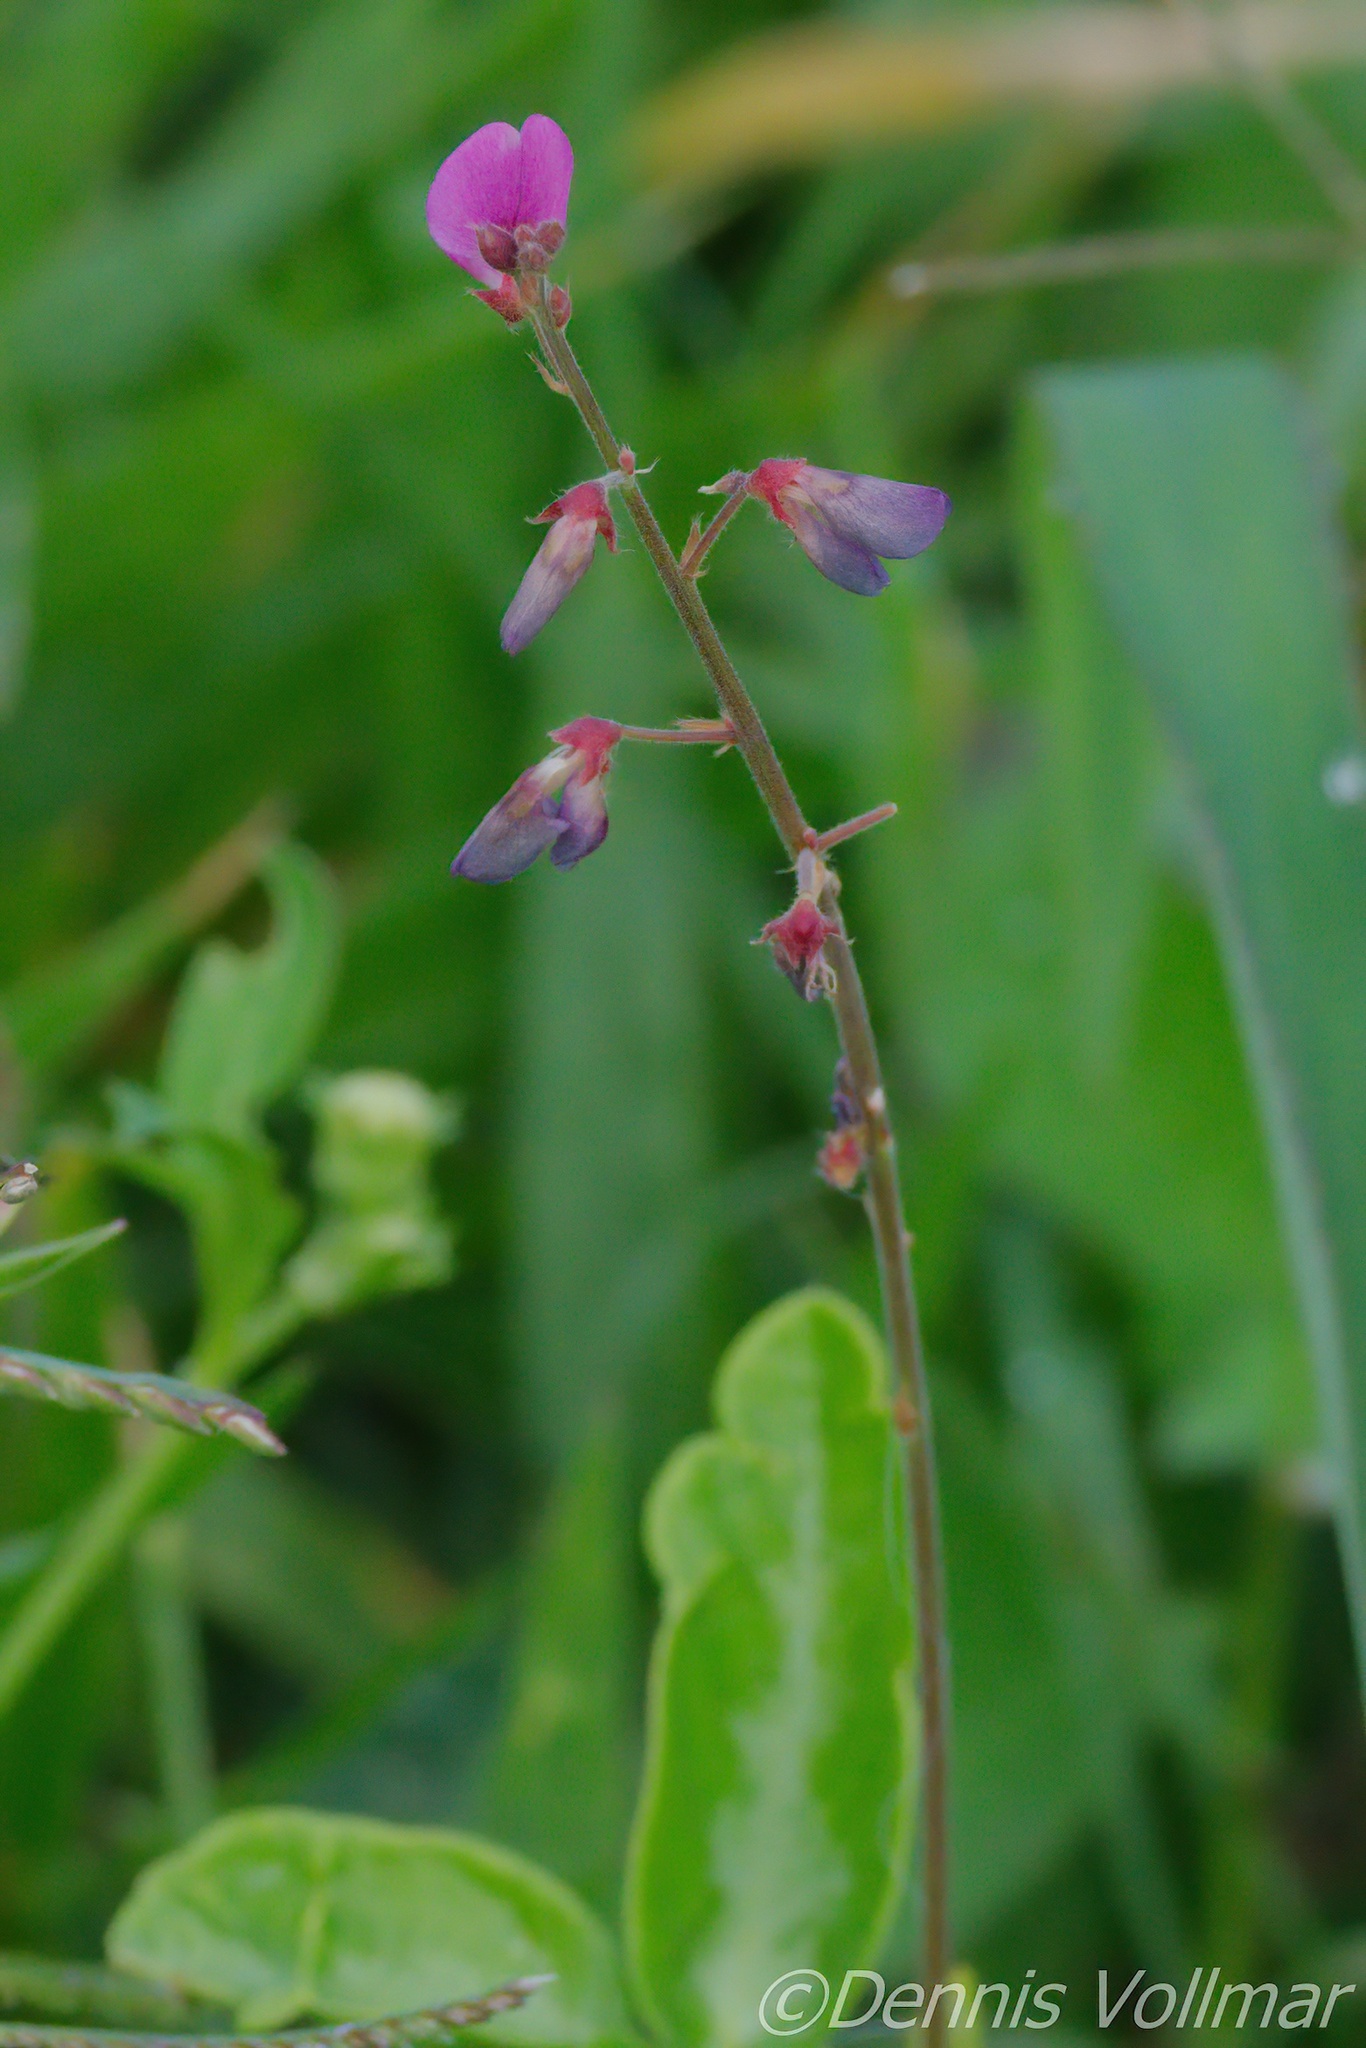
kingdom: Plantae
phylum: Tracheophyta
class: Magnoliopsida
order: Fabales
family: Fabaceae
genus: Desmodium
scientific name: Desmodium incanum
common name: Tickclover
